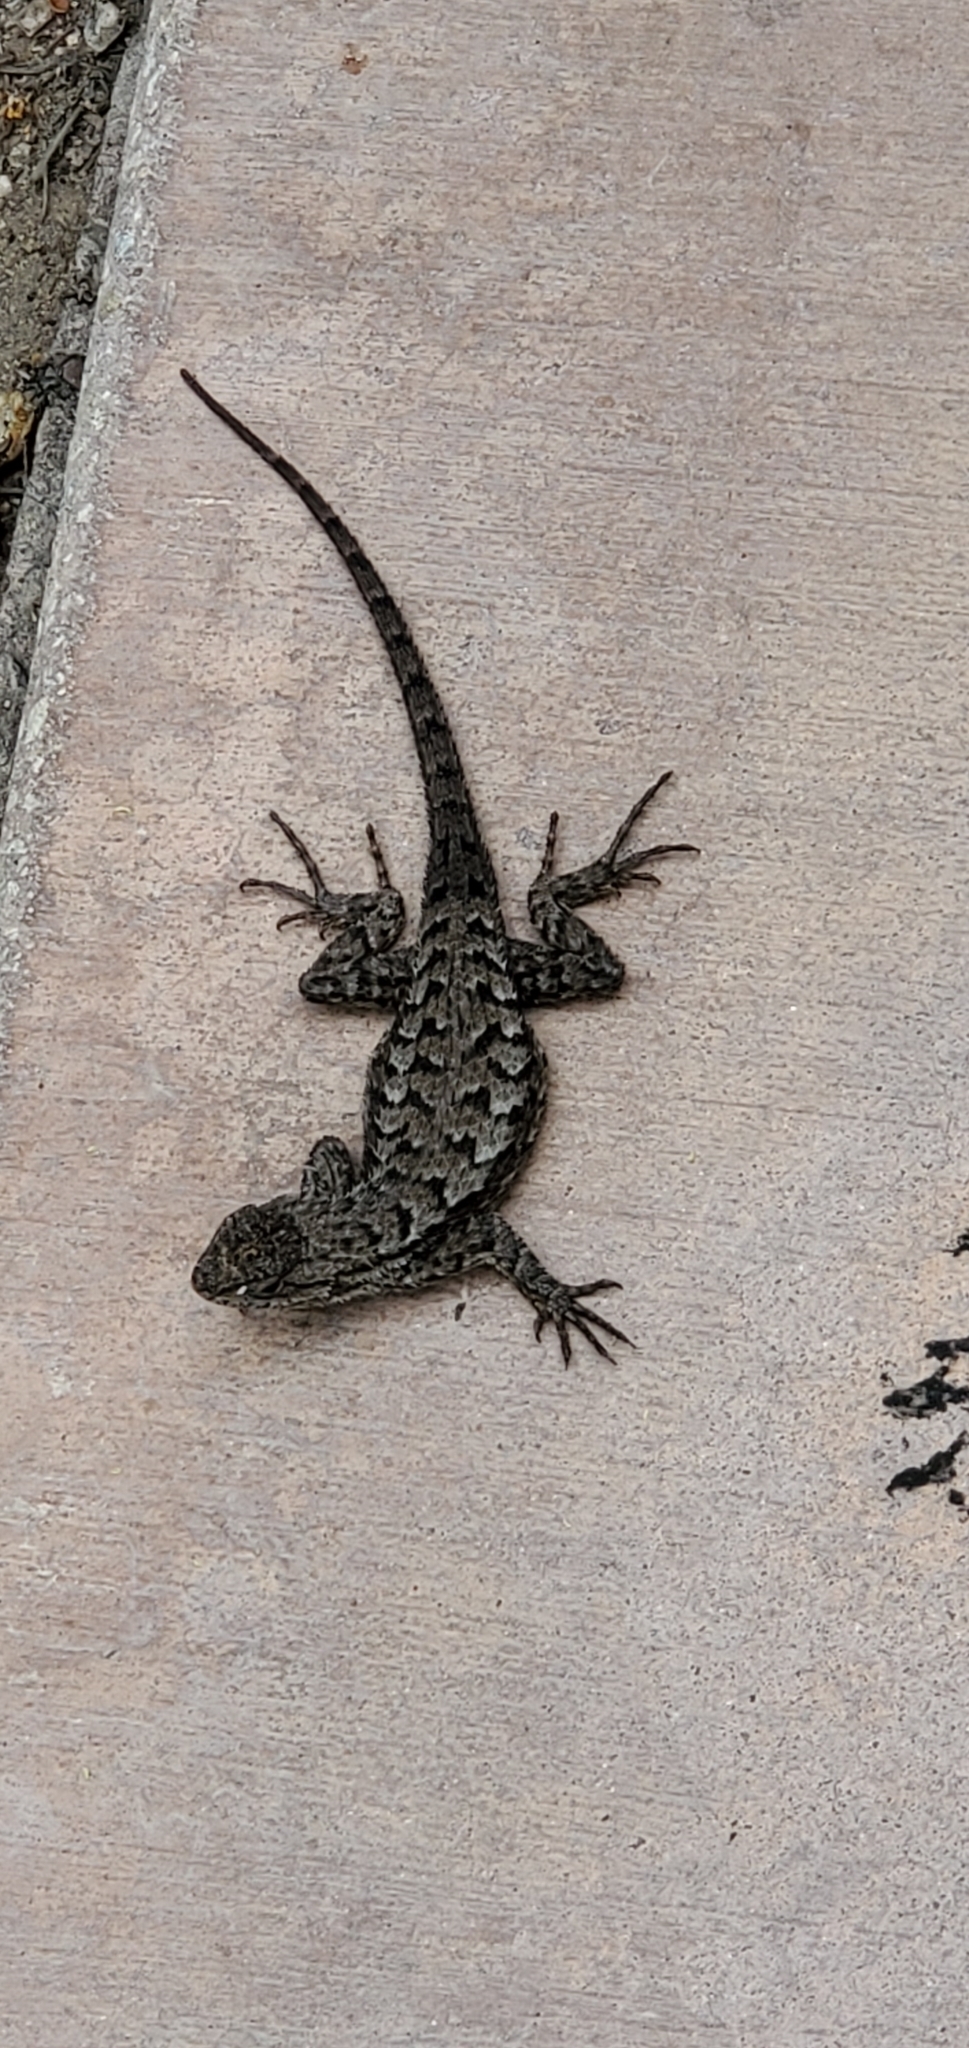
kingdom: Animalia
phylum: Chordata
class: Squamata
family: Phrynosomatidae
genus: Sceloporus
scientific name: Sceloporus occidentalis
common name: Western fence lizard
